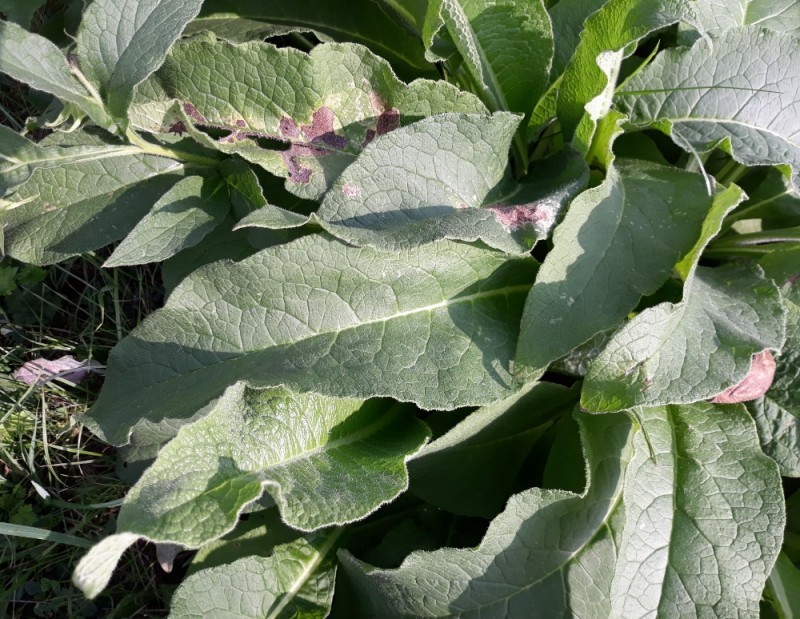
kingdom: Plantae
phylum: Tracheophyta
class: Magnoliopsida
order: Boraginales
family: Boraginaceae
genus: Symphytum
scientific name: Symphytum officinale
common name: Common comfrey
